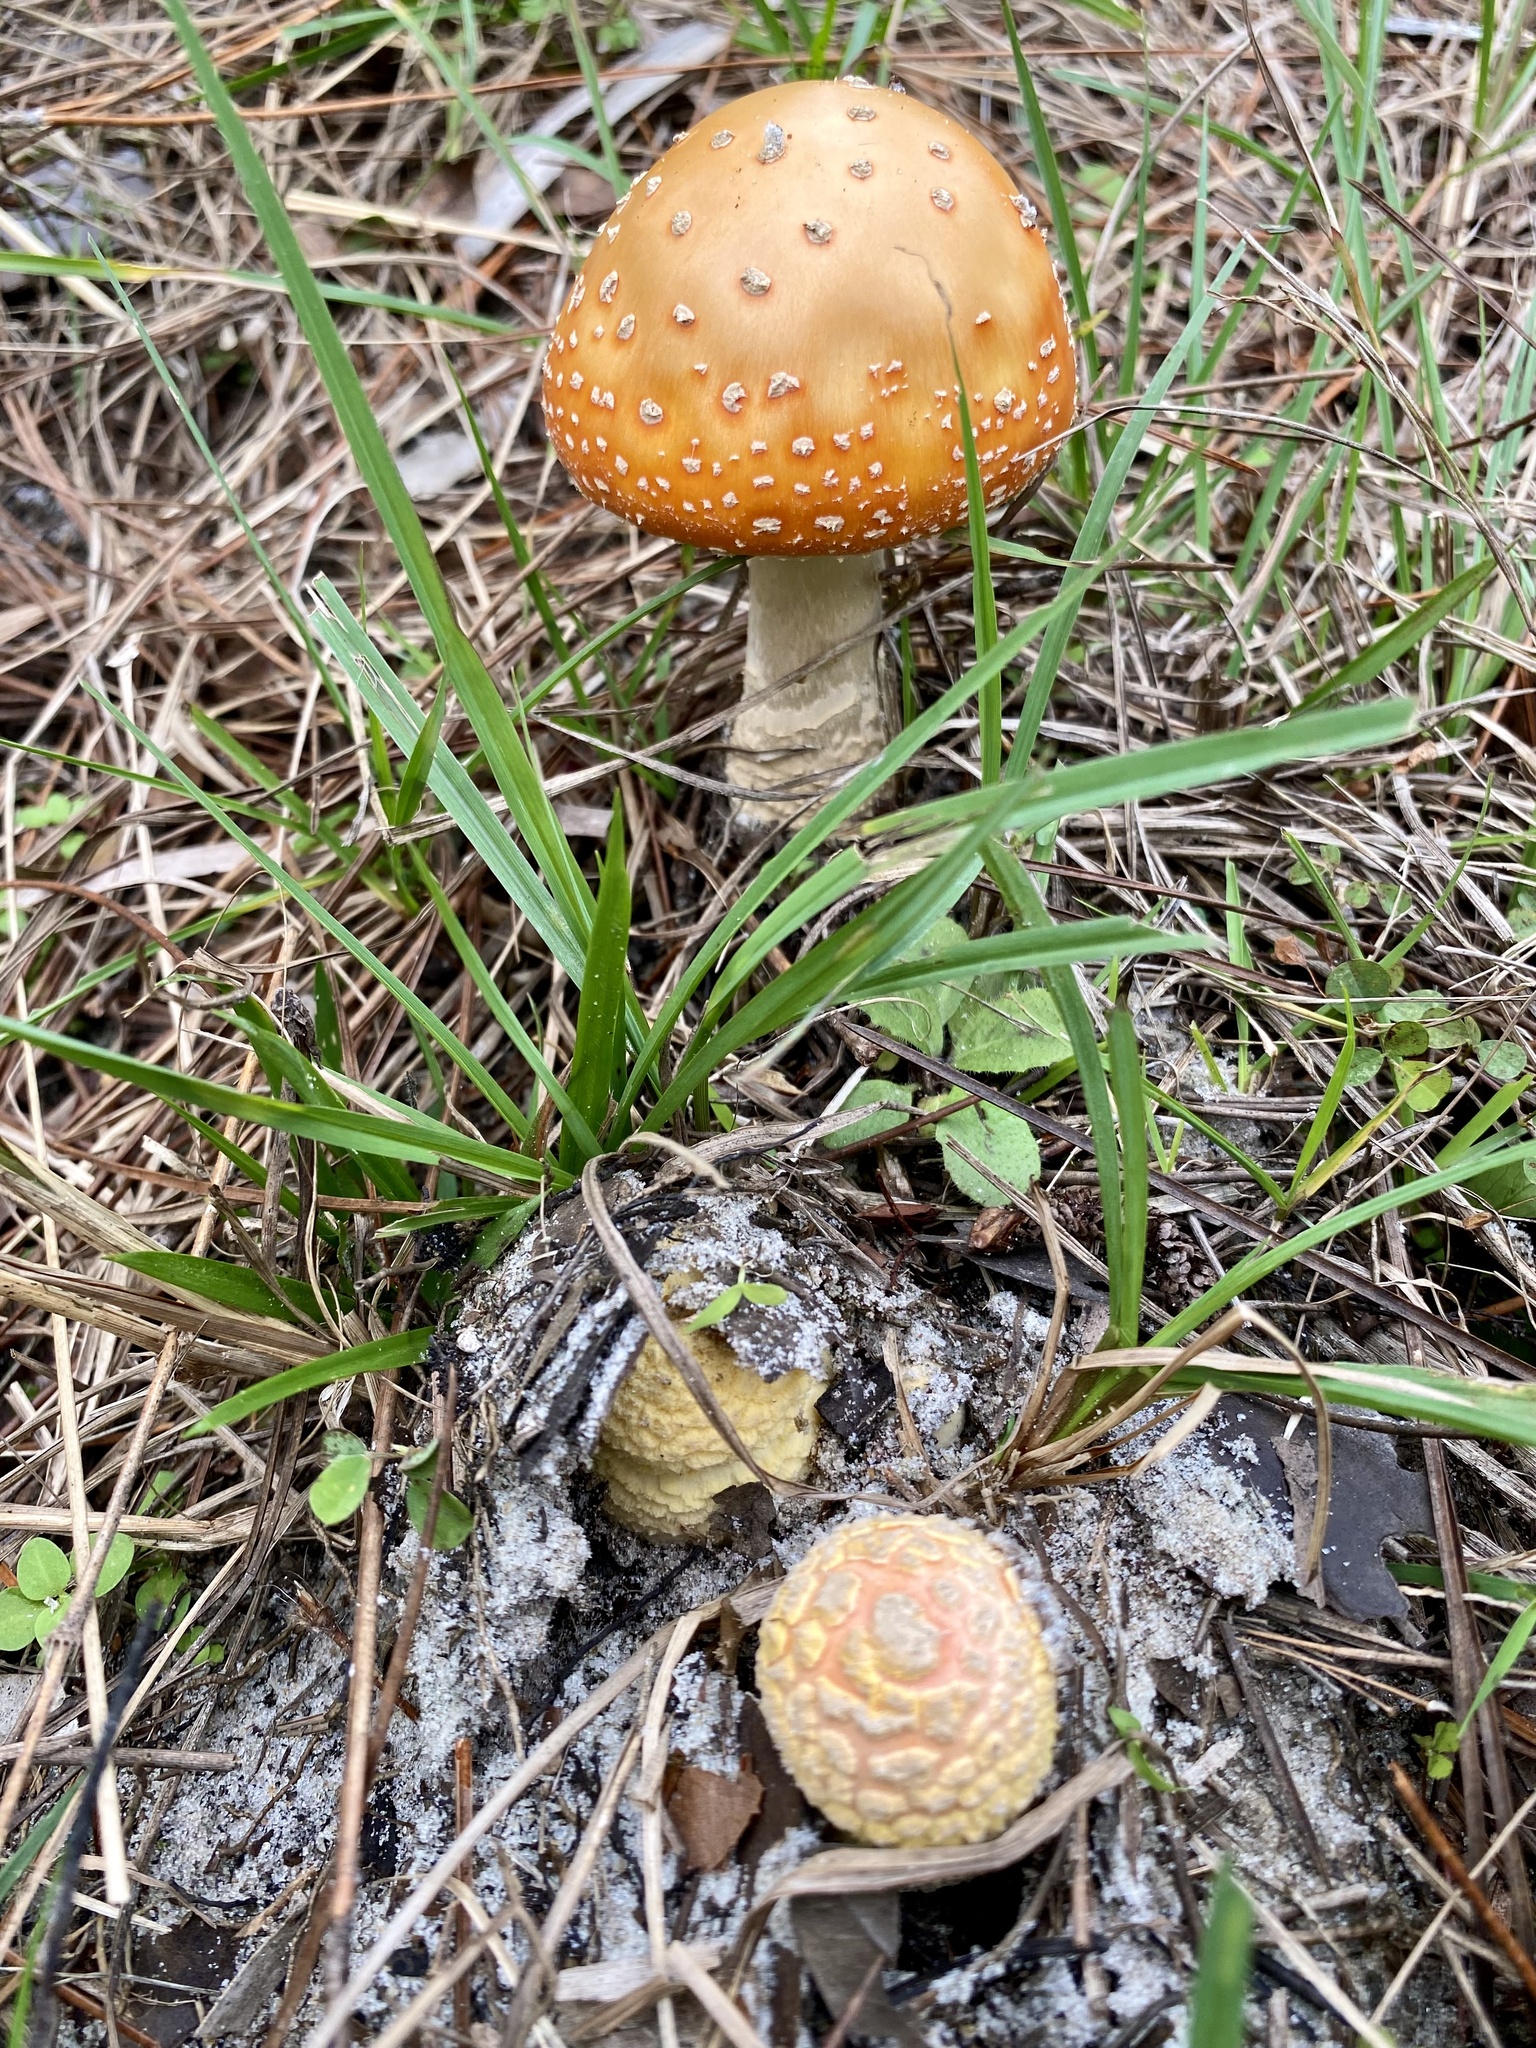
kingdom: Fungi
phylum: Basidiomycota
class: Agaricomycetes
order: Agaricales
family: Amanitaceae
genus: Amanita
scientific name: Amanita persicina
